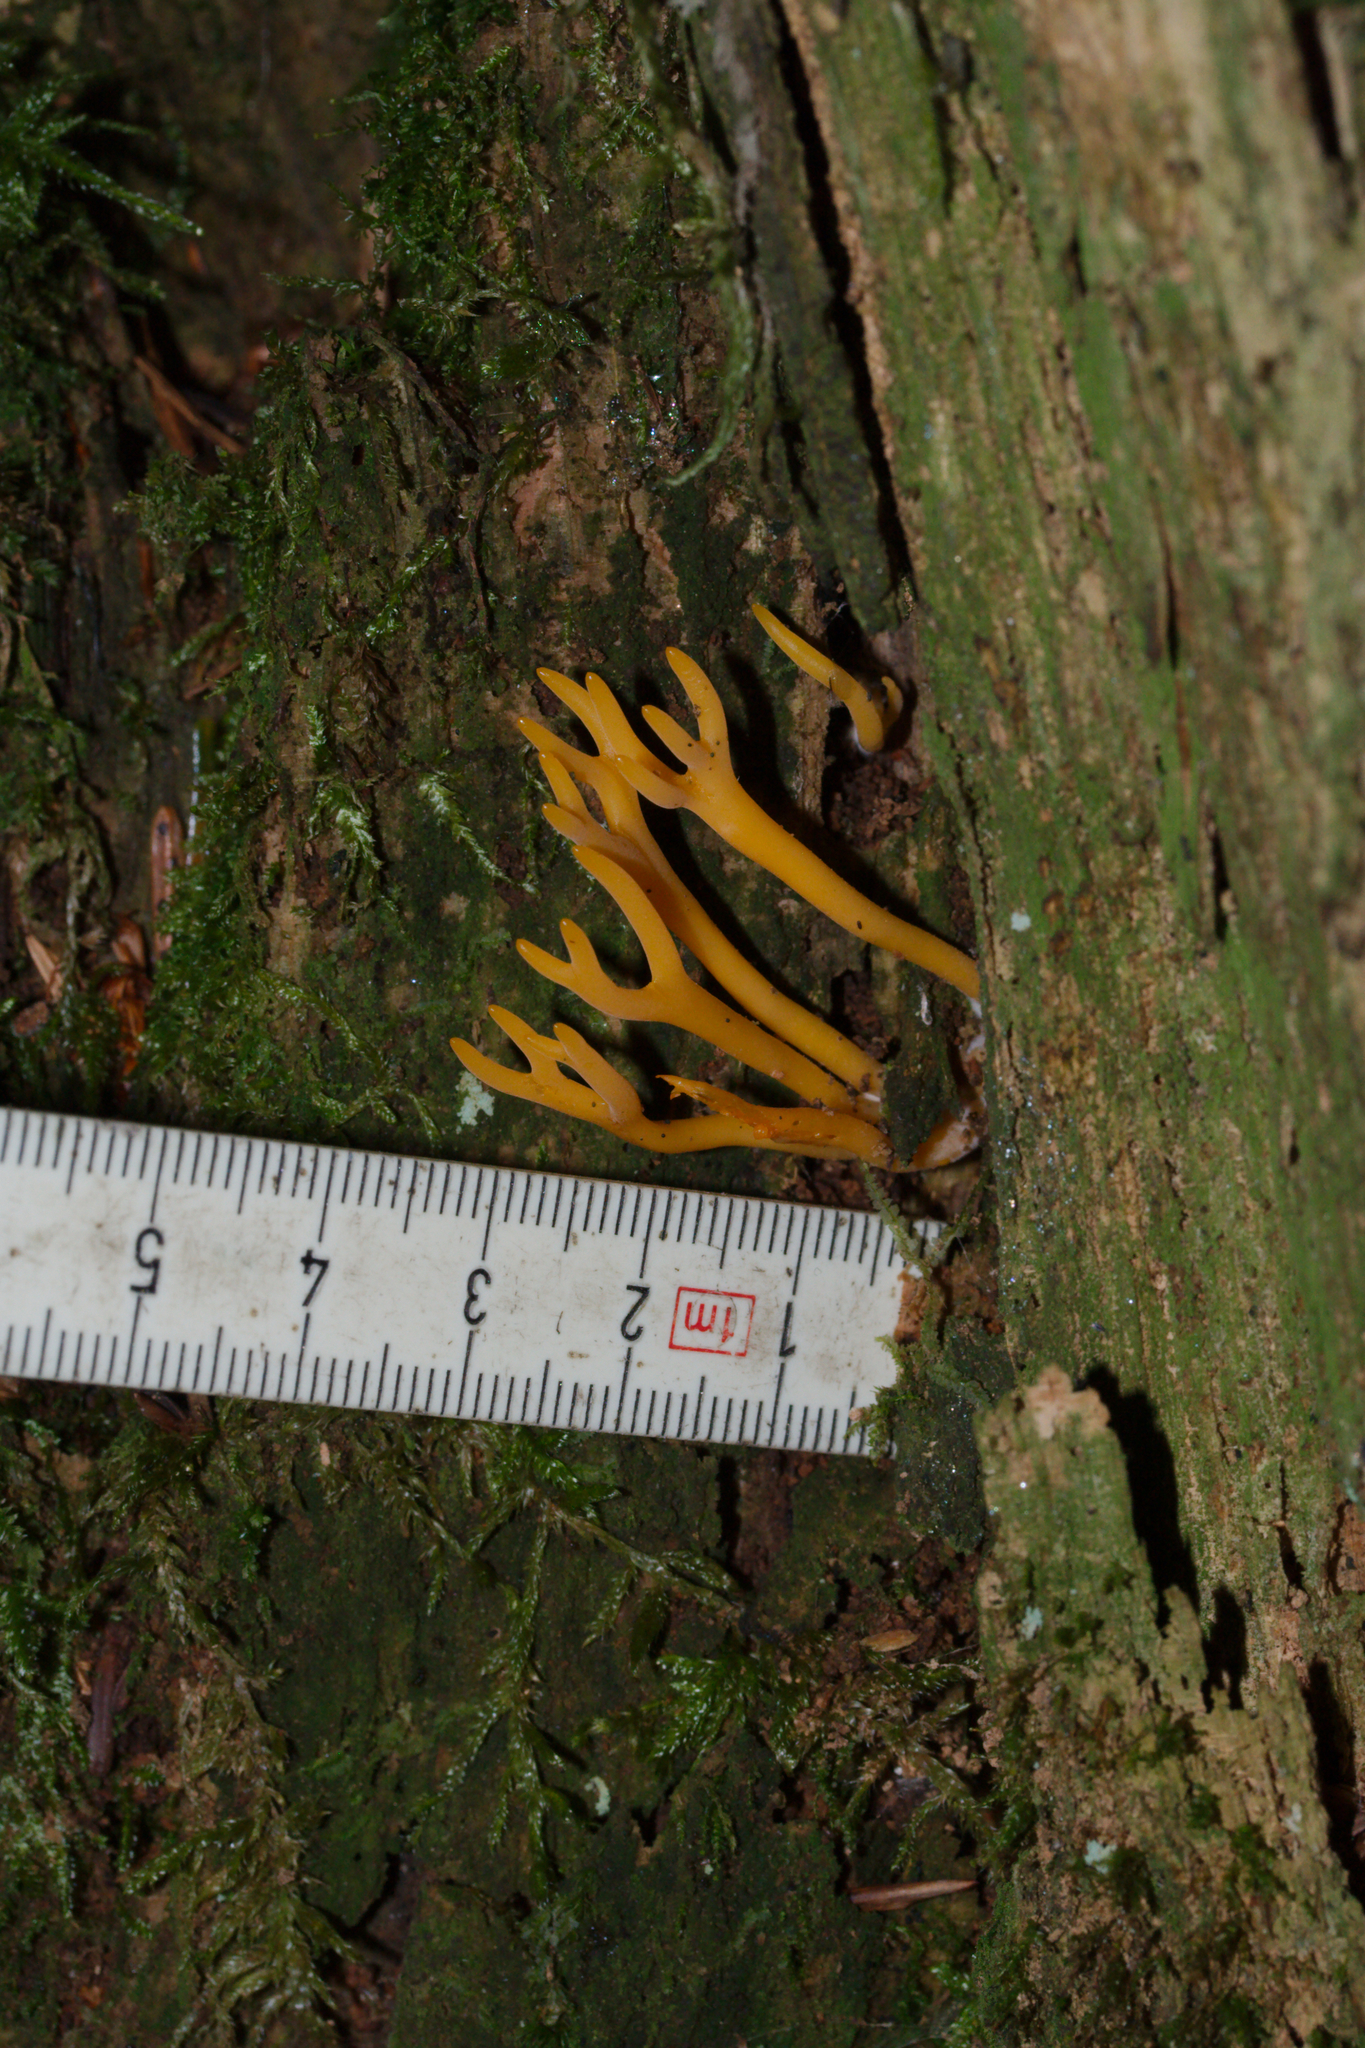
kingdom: Fungi
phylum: Basidiomycota
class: Dacrymycetes
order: Dacrymycetales
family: Dacrymycetaceae
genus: Calocera
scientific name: Calocera viscosa
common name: Yellow stagshorn
